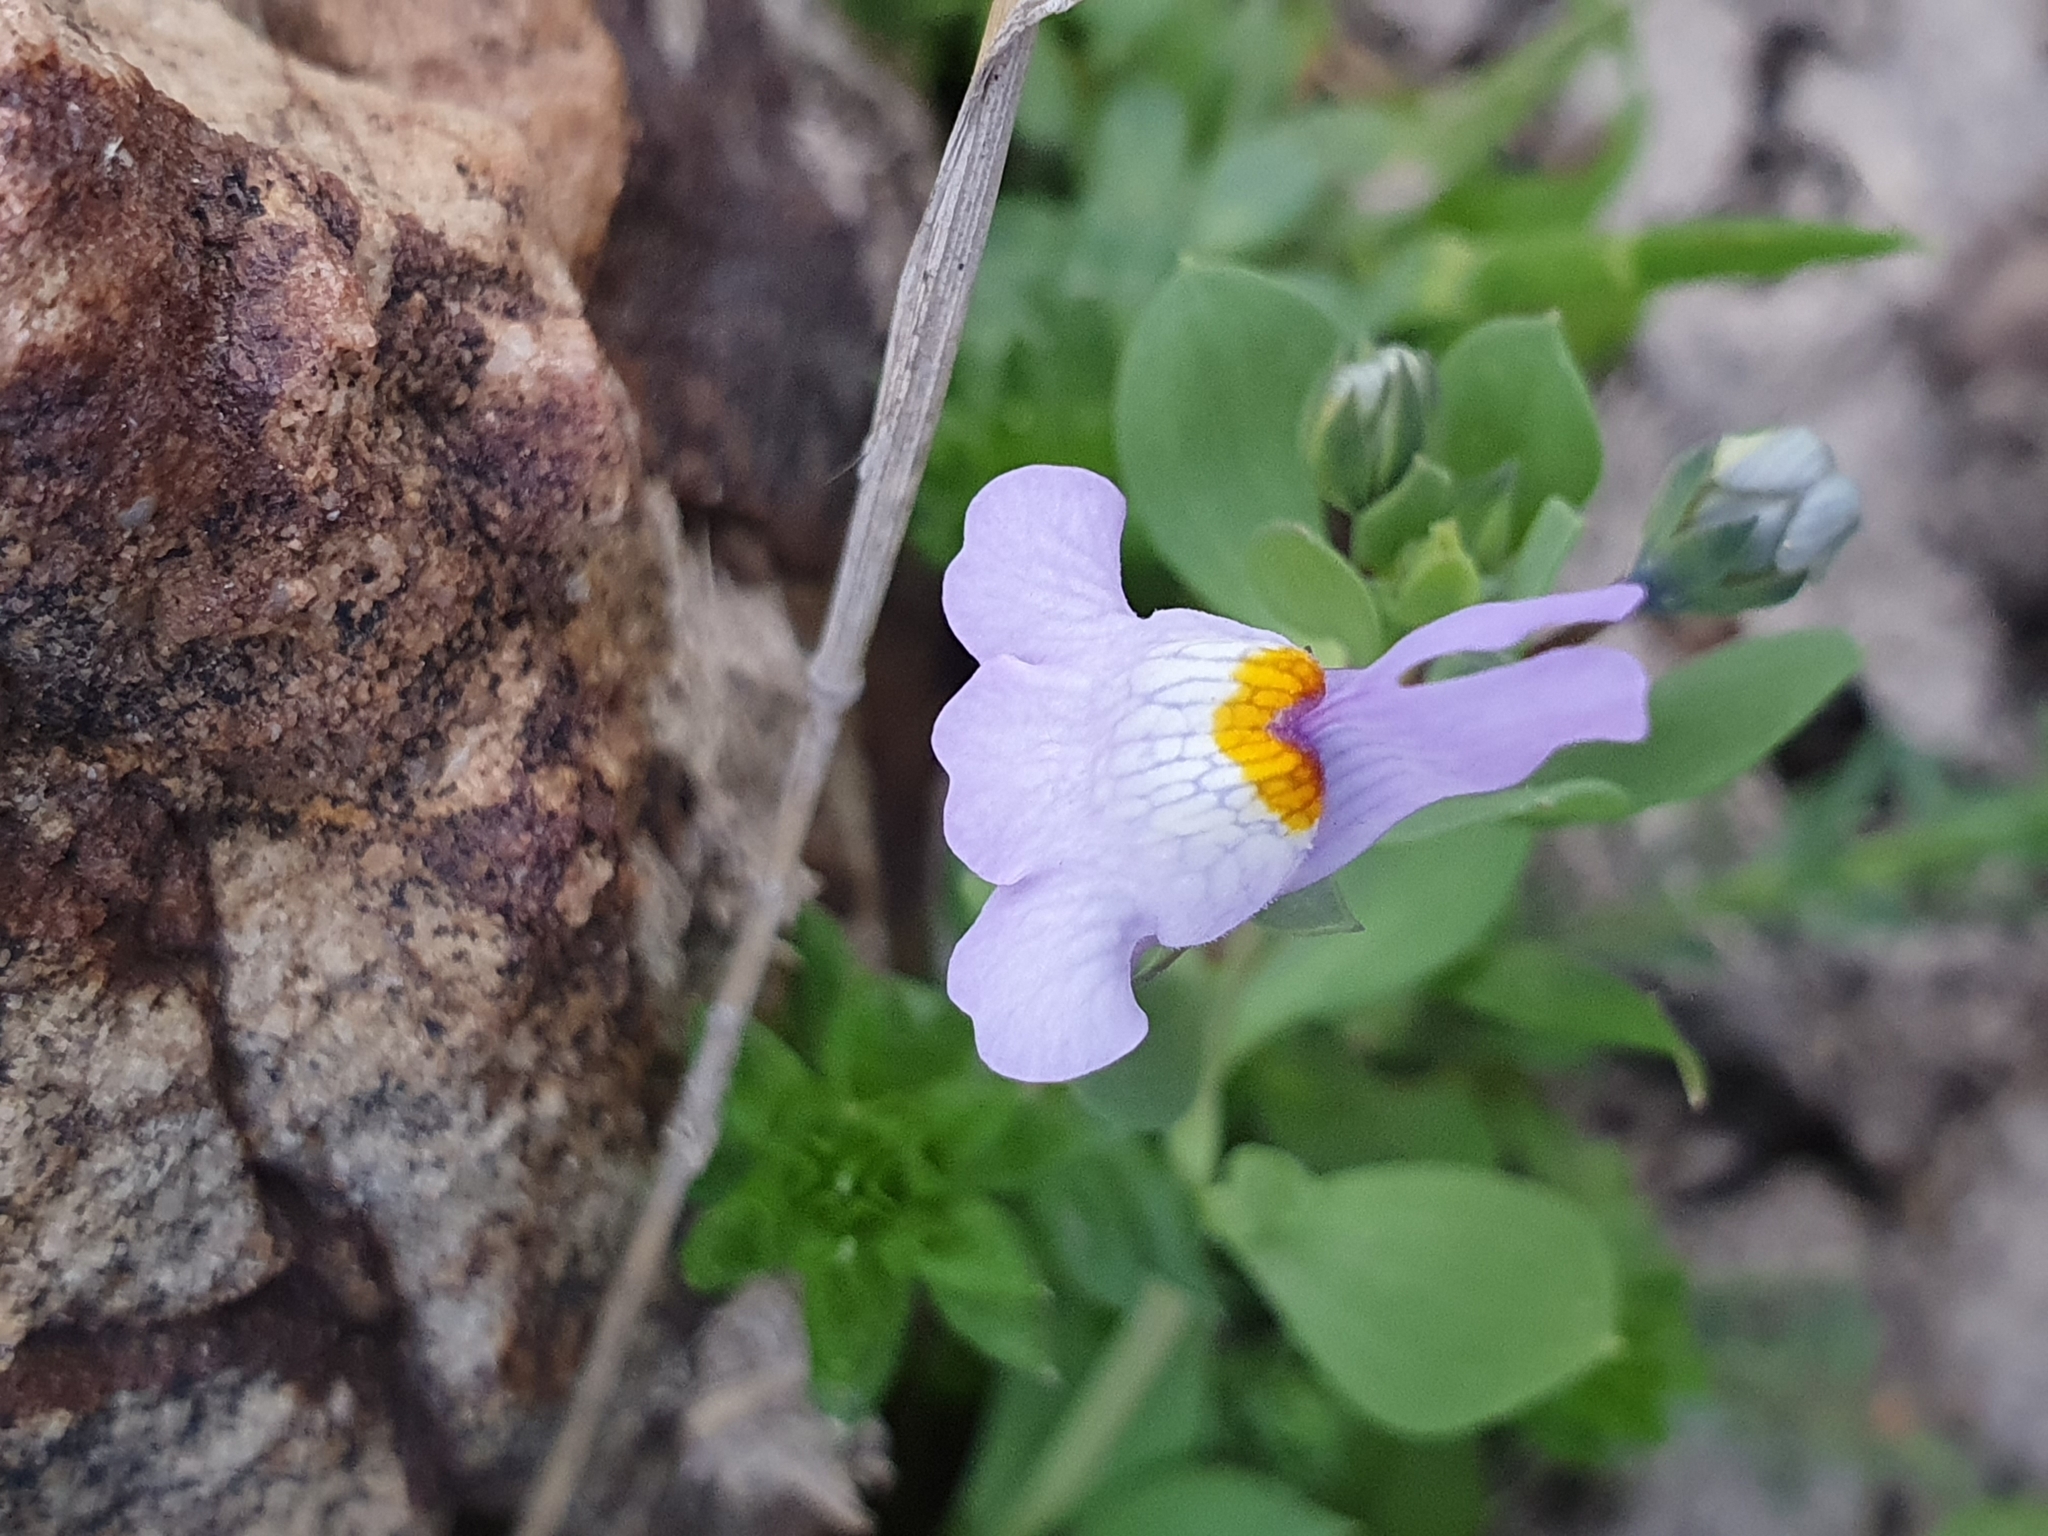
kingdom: Plantae
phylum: Tracheophyta
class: Magnoliopsida
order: Lamiales
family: Plantaginaceae
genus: Linaria
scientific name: Linaria reflexa
